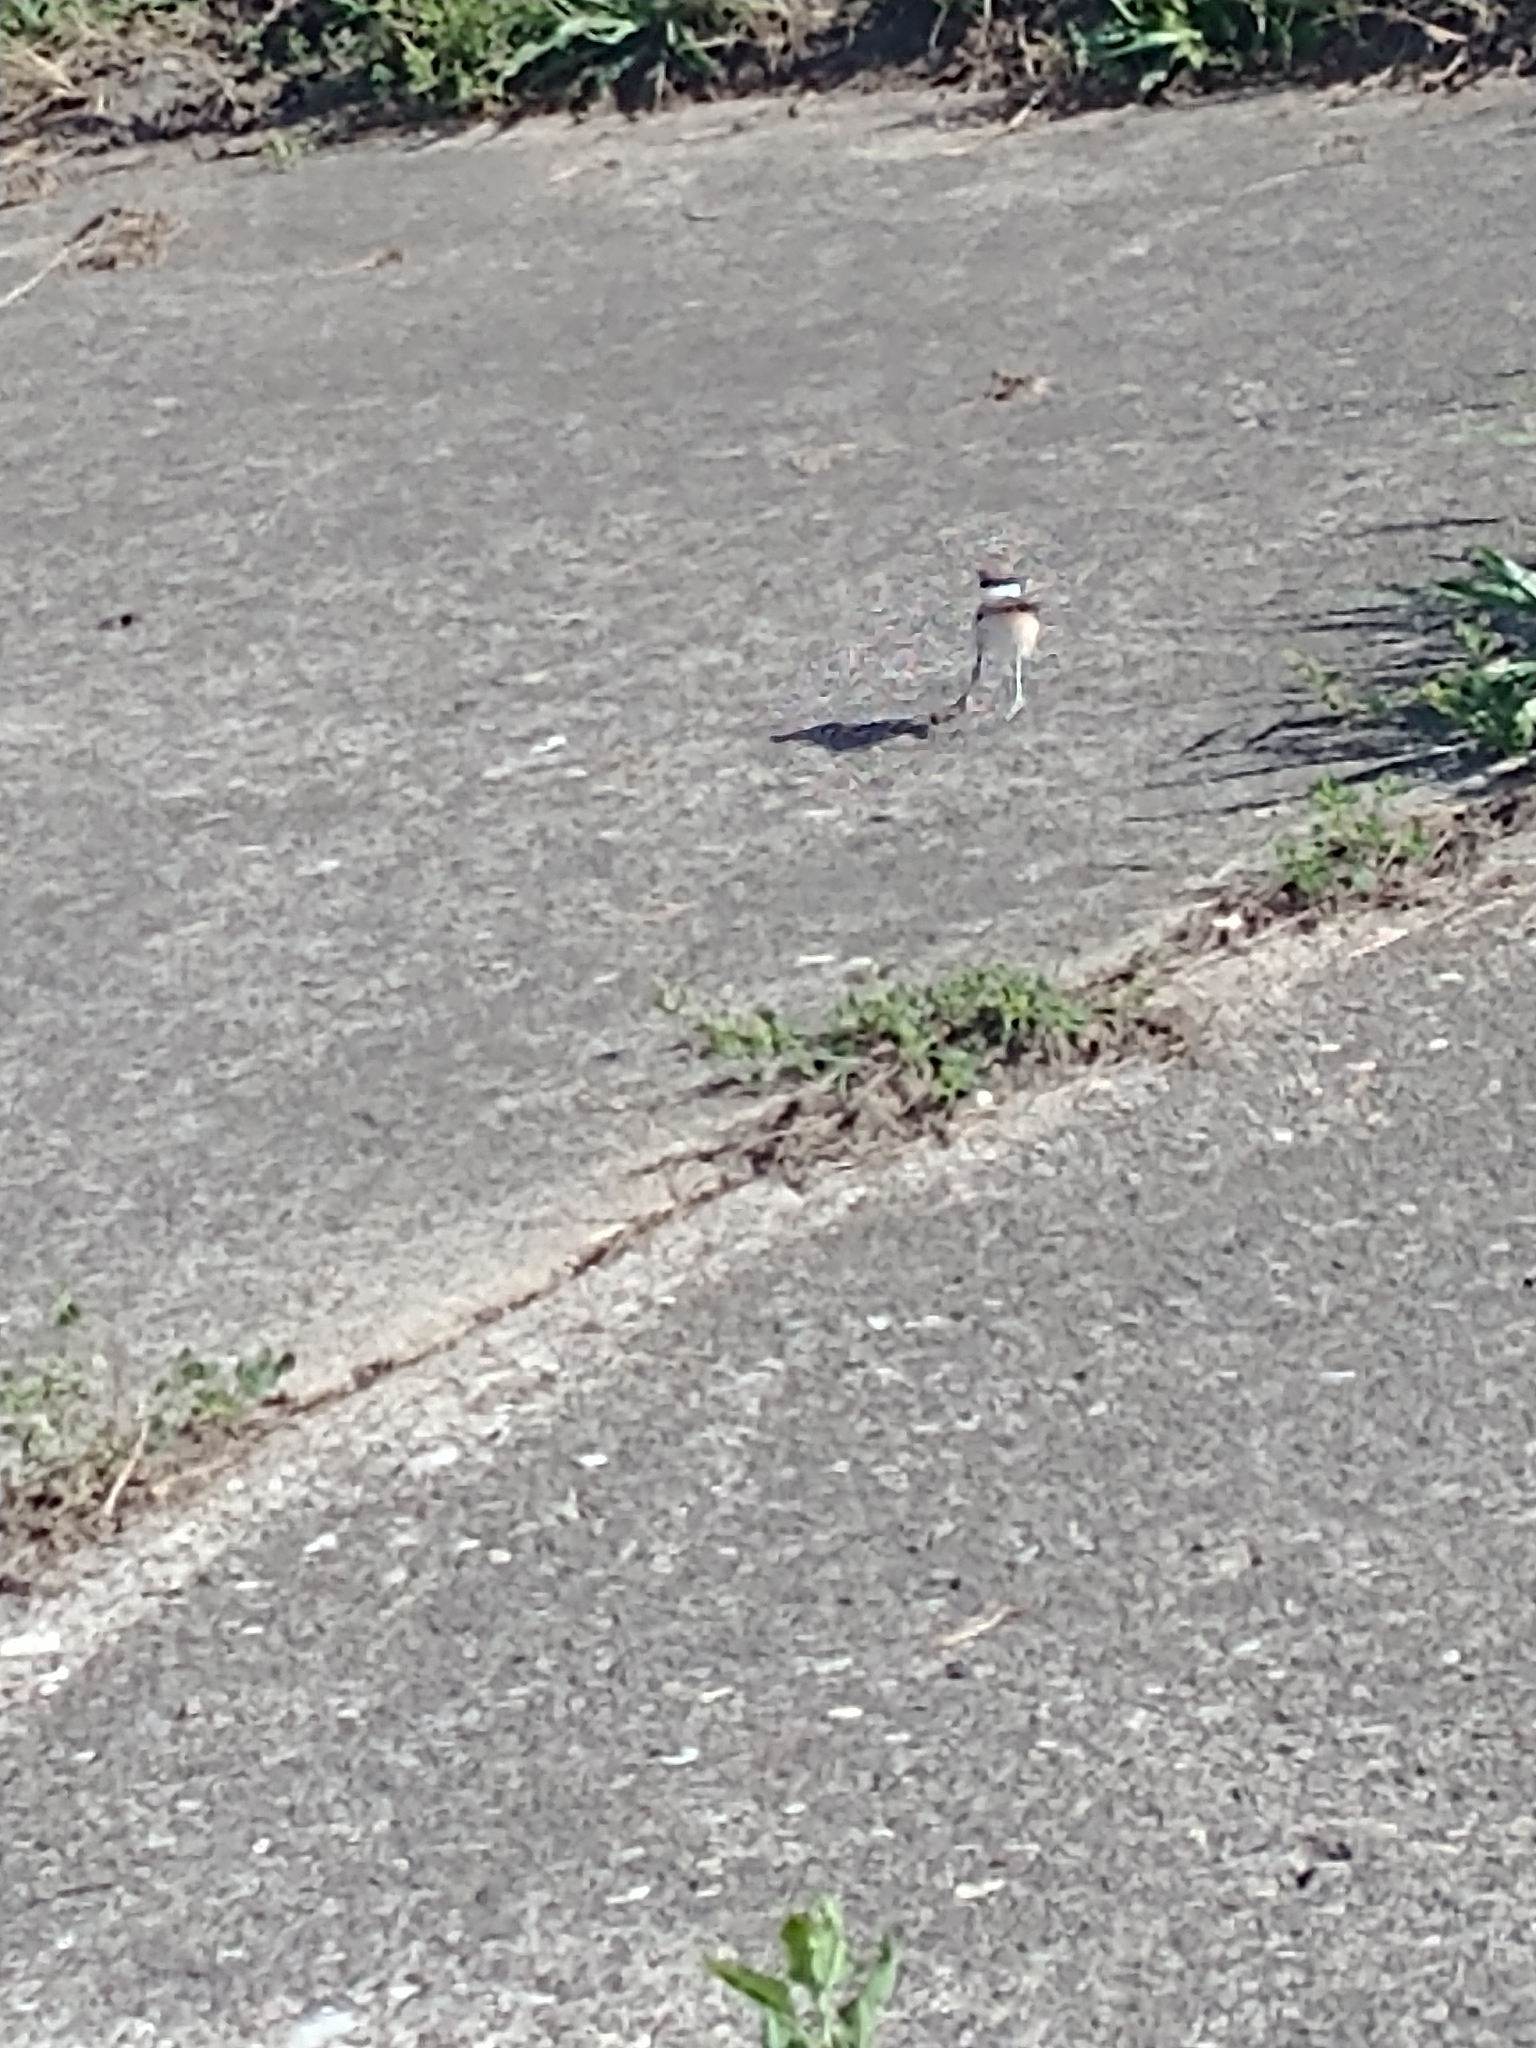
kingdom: Animalia
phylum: Chordata
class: Aves
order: Charadriiformes
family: Charadriidae
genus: Charadrius
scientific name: Charadrius vociferus
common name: Killdeer
